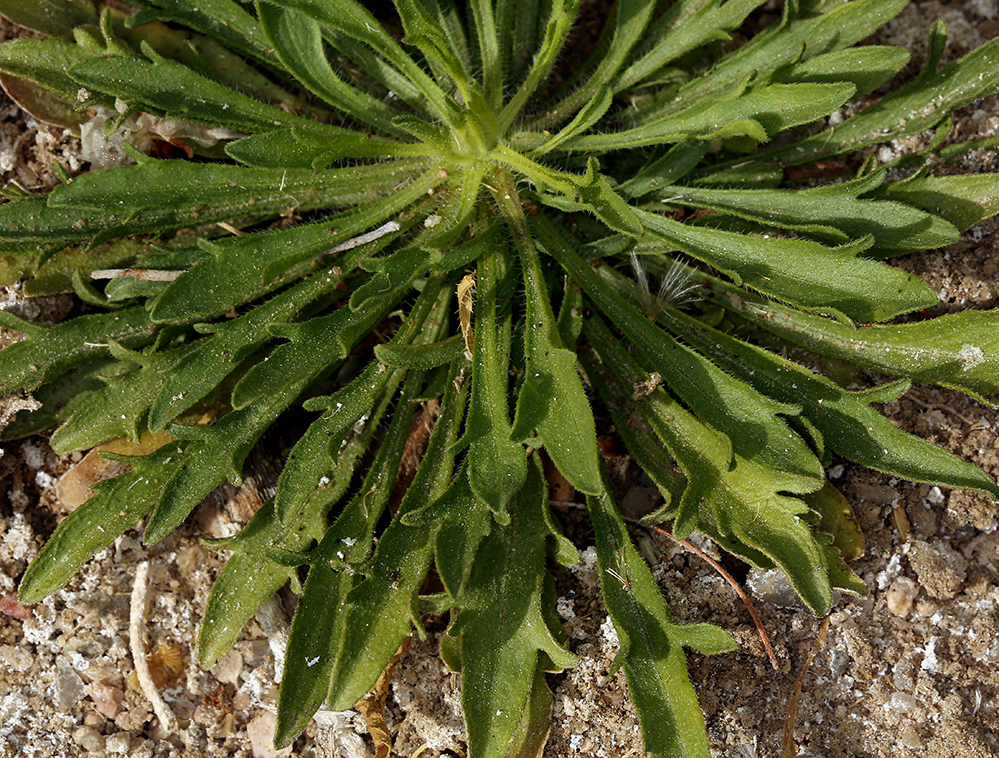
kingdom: Plantae
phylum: Tracheophyta
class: Magnoliopsida
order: Asterales
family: Asteraceae
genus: Erigeron
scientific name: Erigeron canadensis
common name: Canadian fleabane
